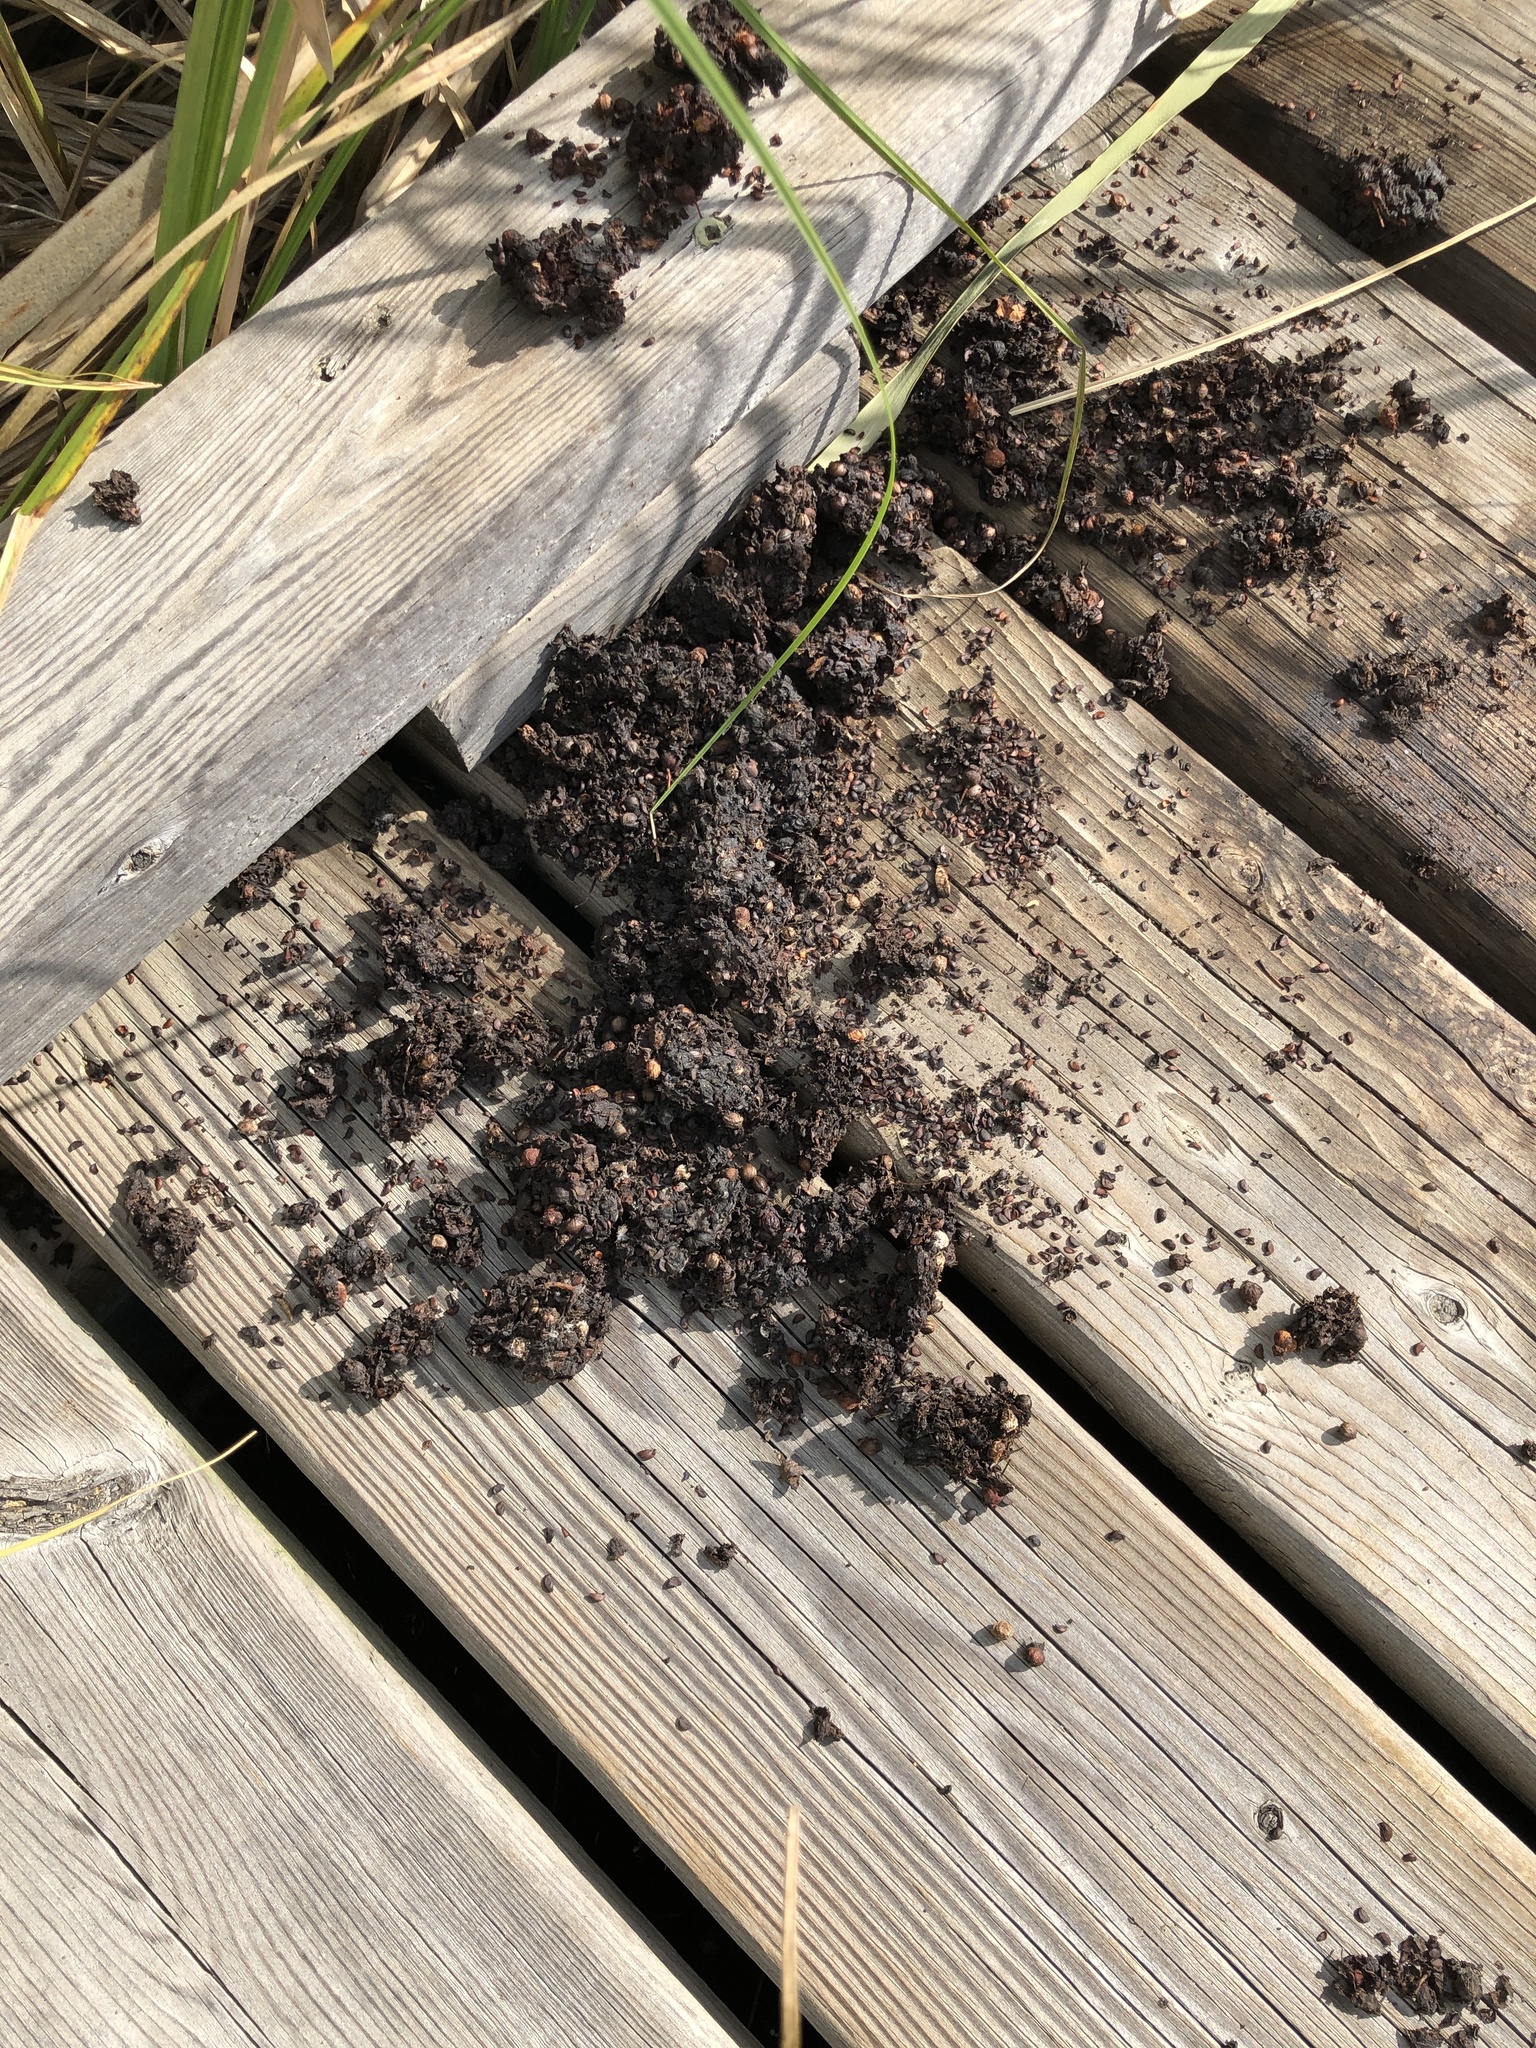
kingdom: Animalia
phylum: Chordata
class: Mammalia
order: Carnivora
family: Ursidae
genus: Ursus
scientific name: Ursus americanus
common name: American black bear
